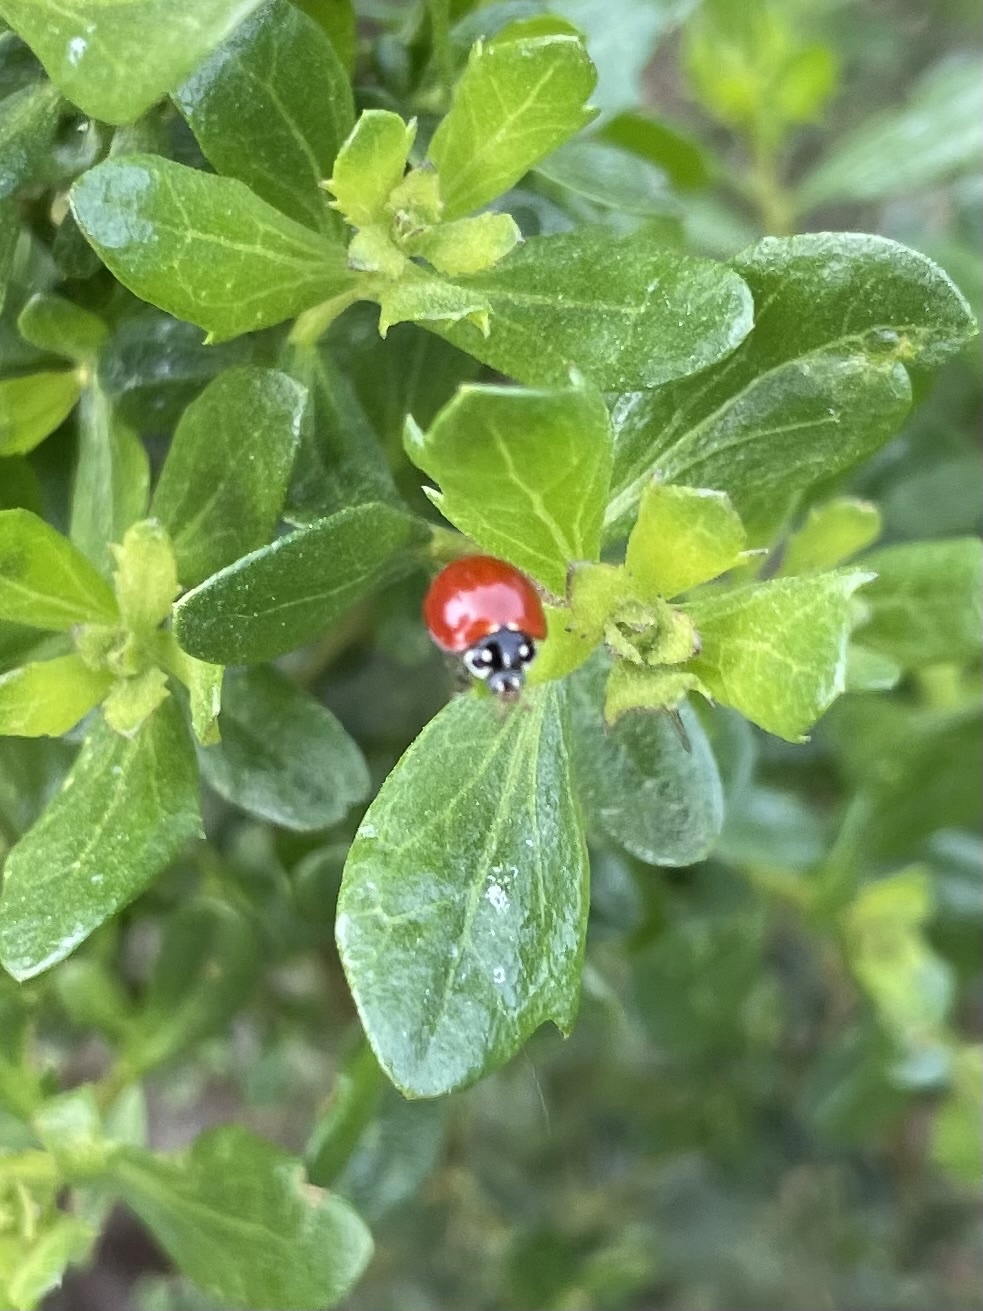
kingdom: Animalia
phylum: Arthropoda
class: Insecta
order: Coleoptera
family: Coccinellidae
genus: Cycloneda
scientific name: Cycloneda sanguinea
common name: Ladybird beetle
